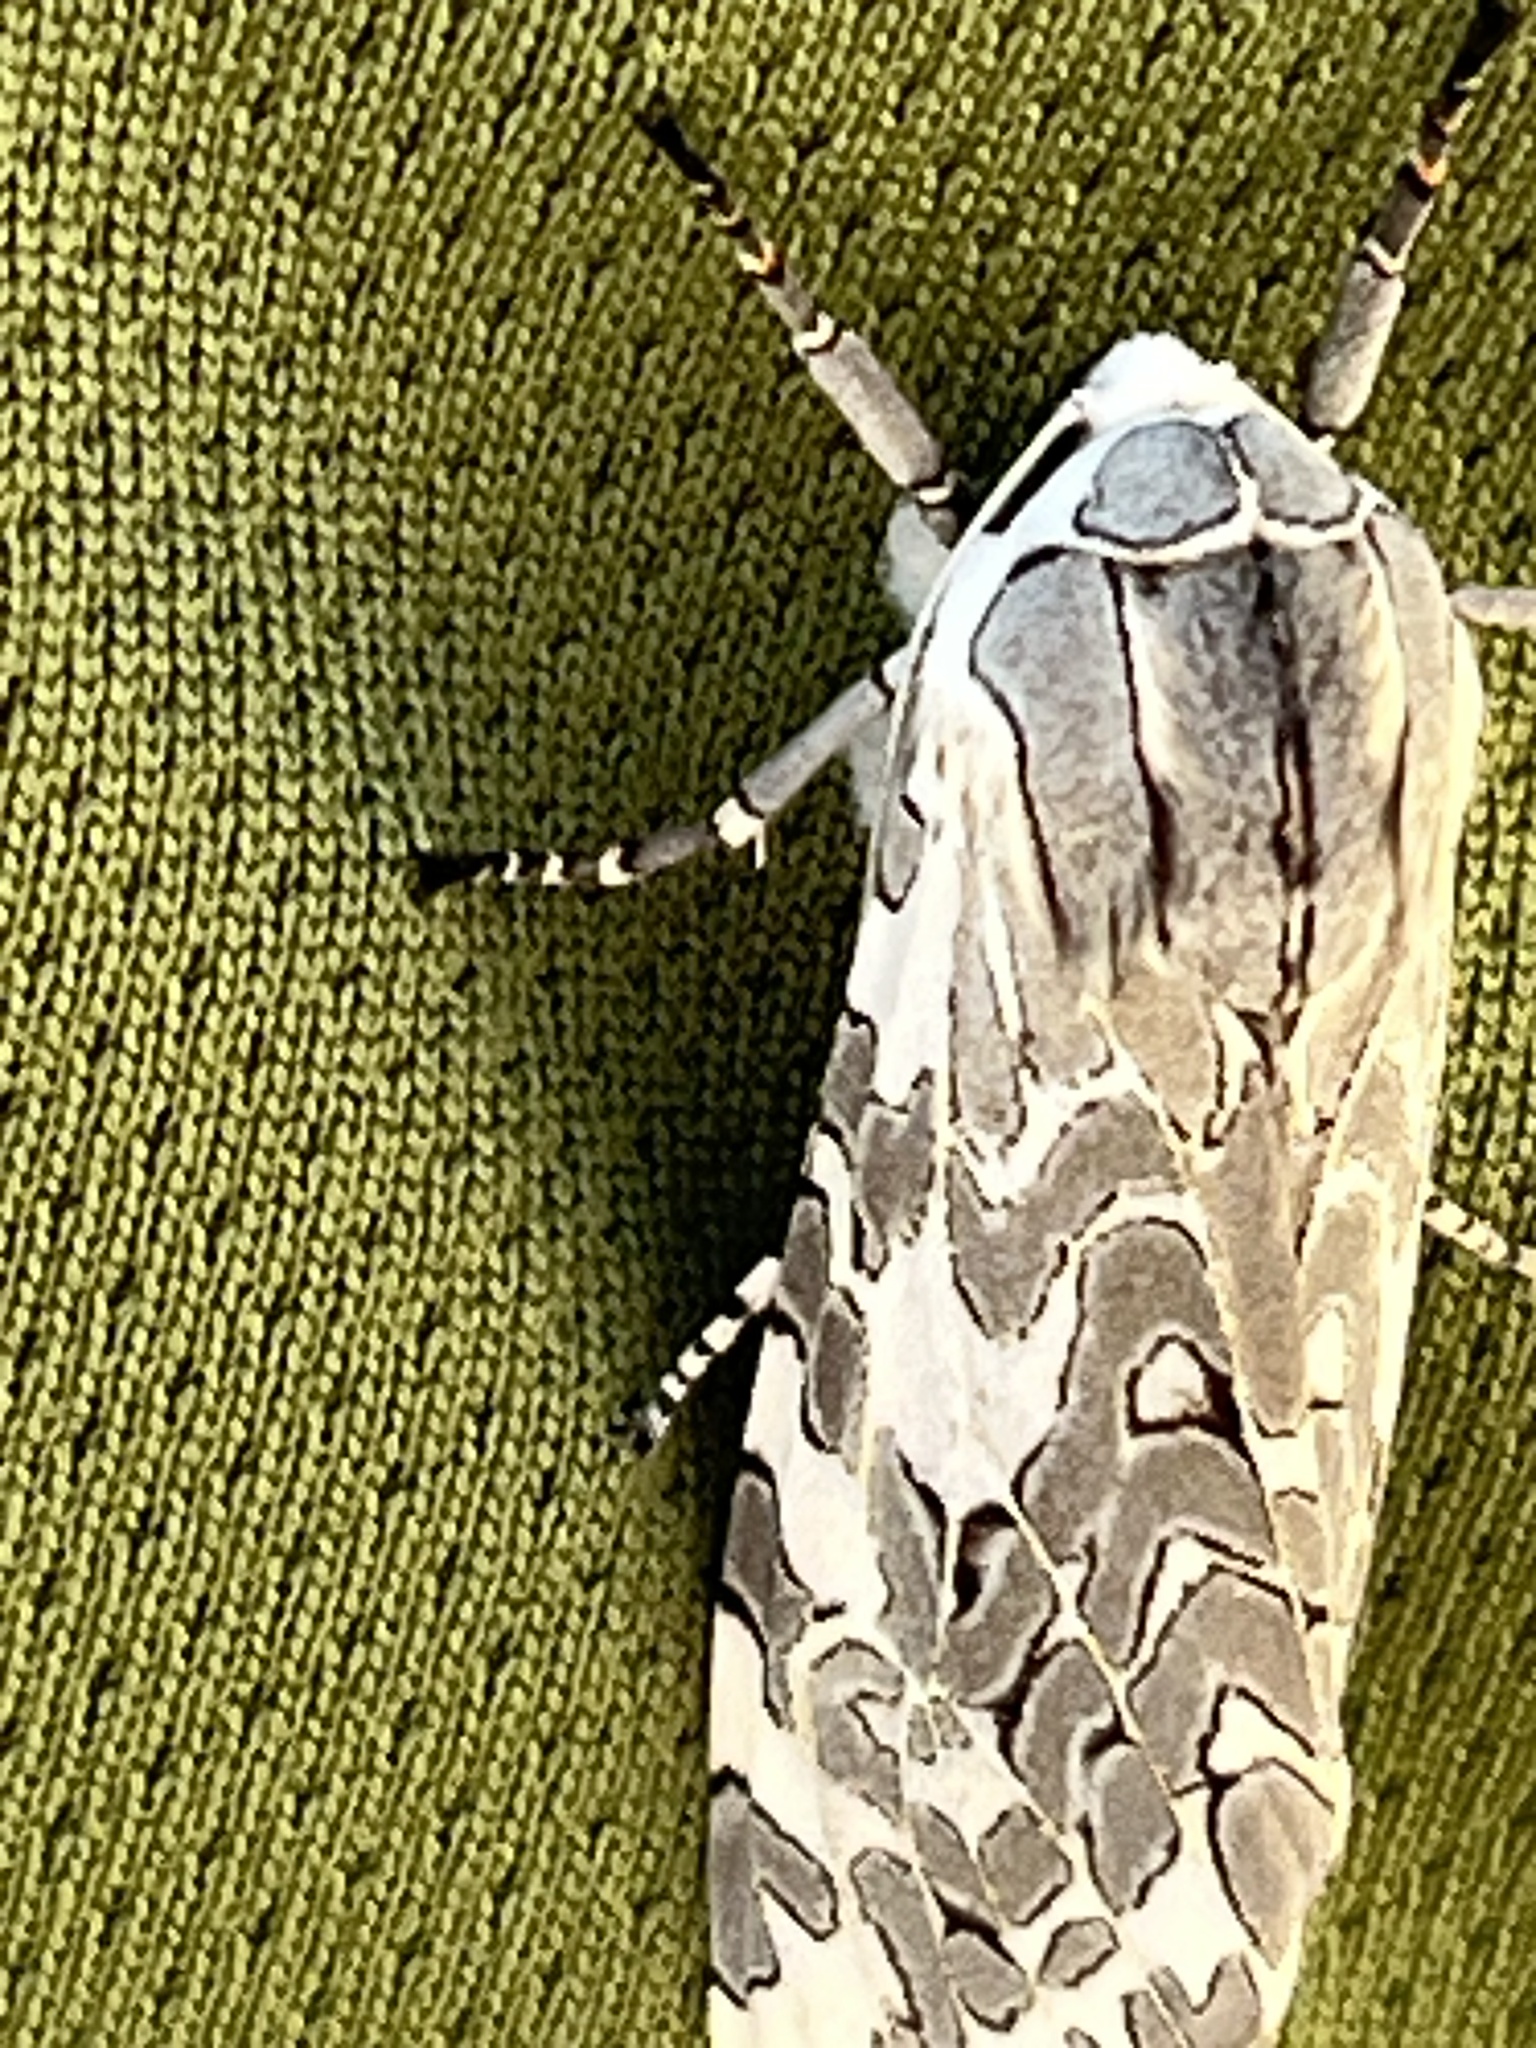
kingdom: Animalia
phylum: Arthropoda
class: Insecta
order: Lepidoptera
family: Erebidae
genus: Arachnis
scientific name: Arachnis picta
